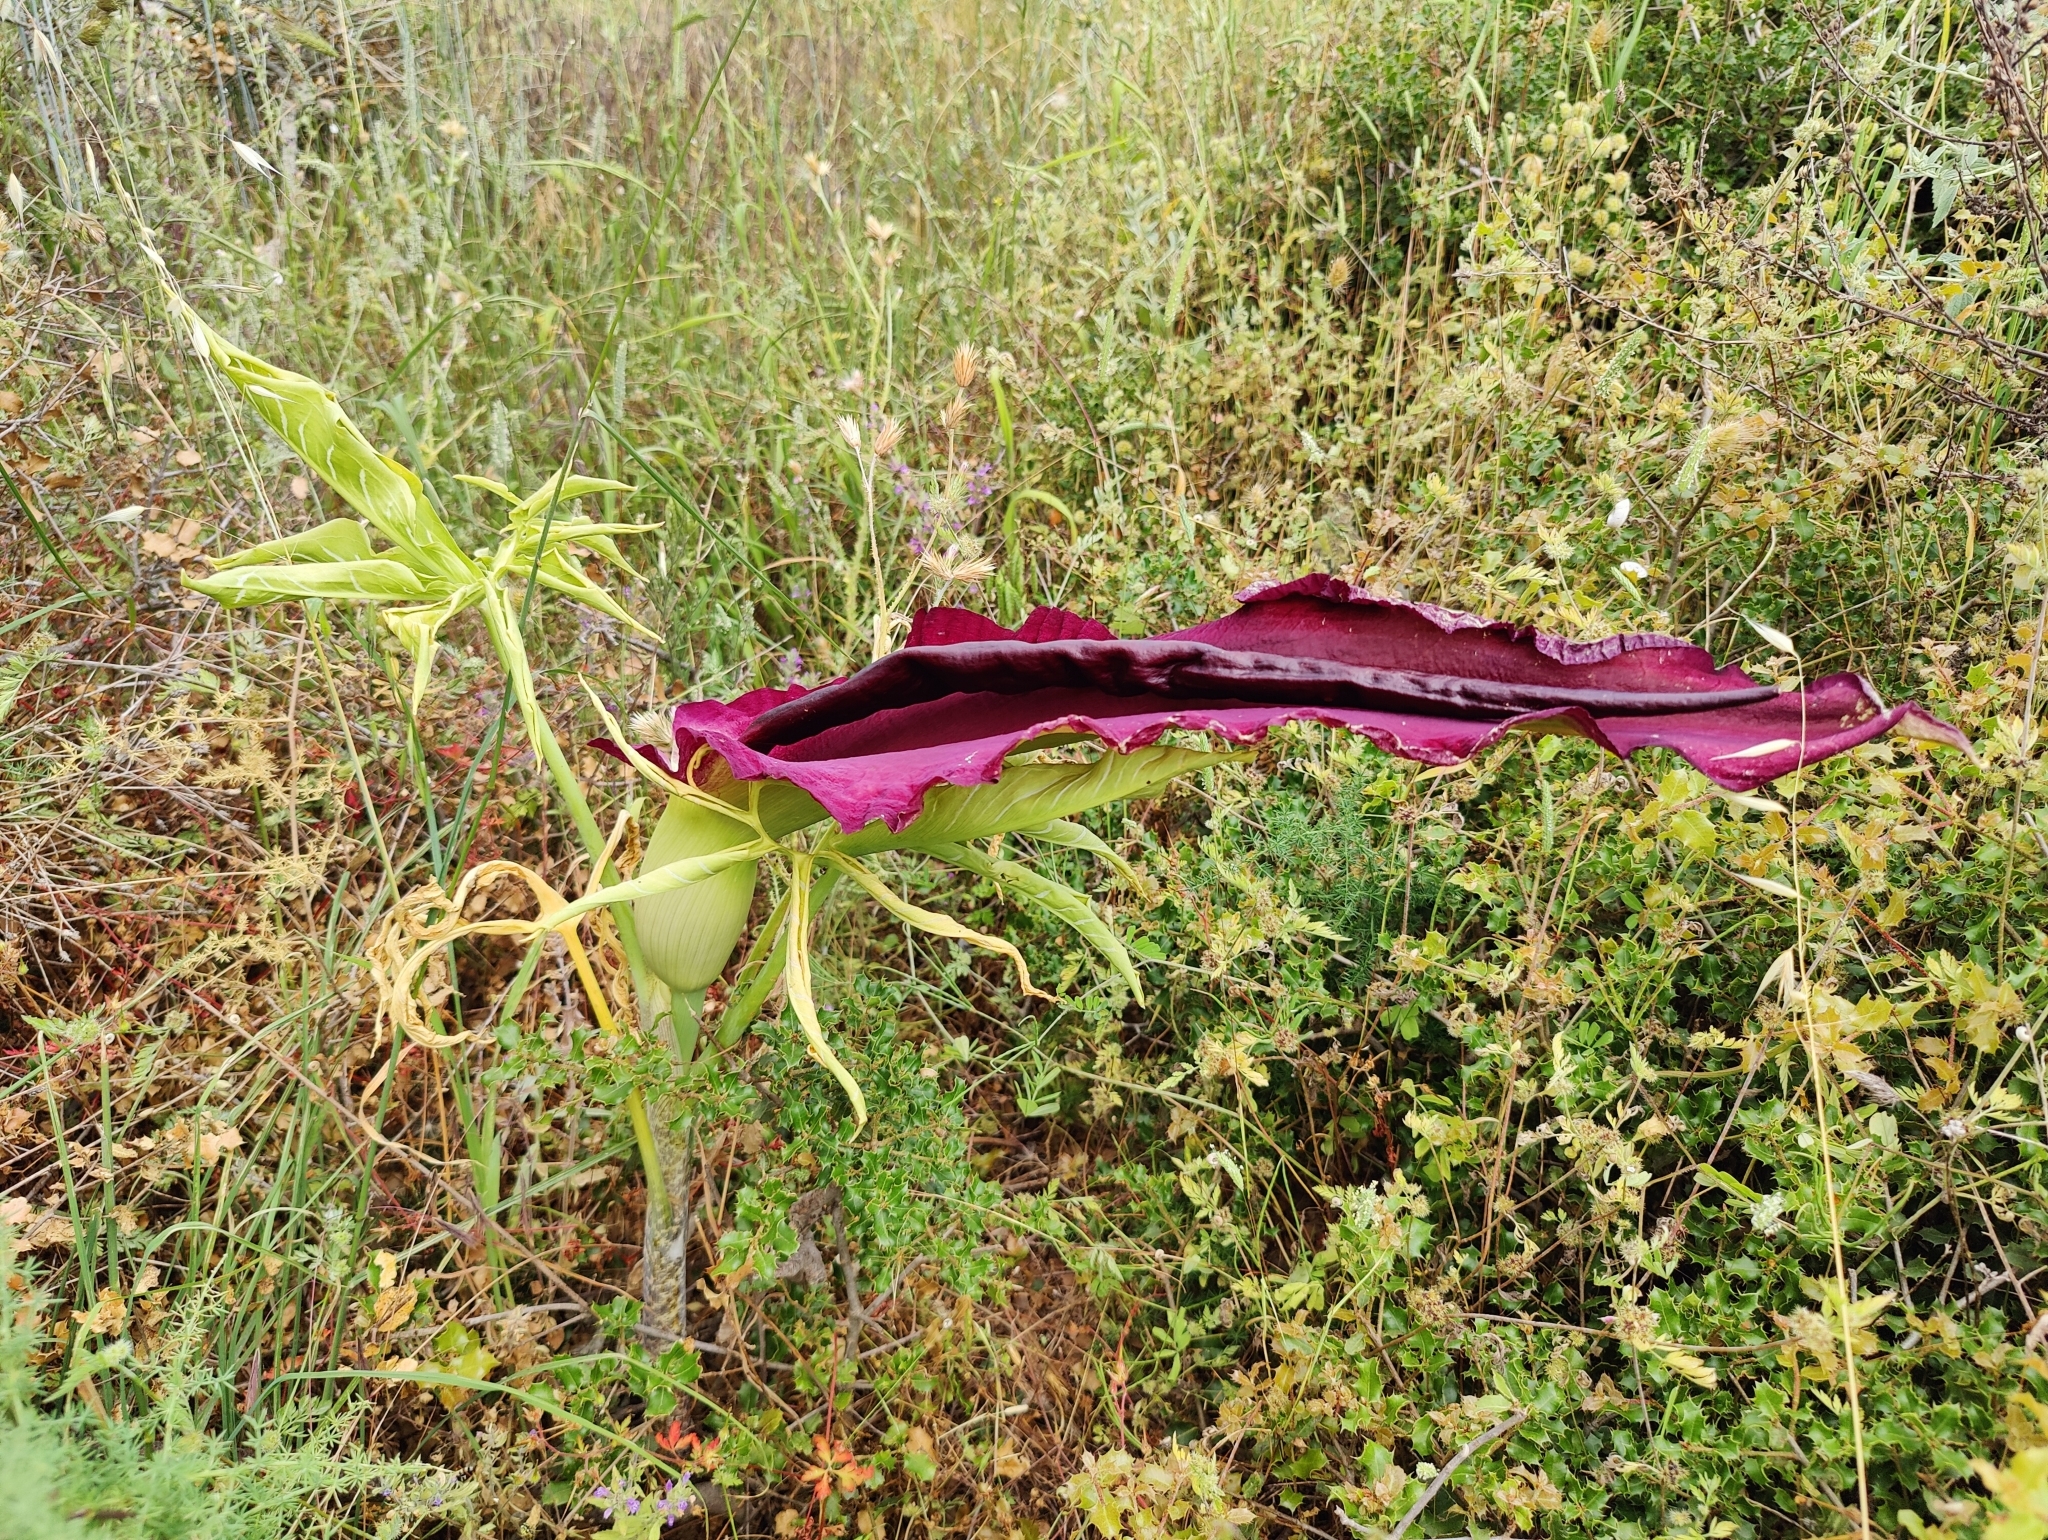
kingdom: Plantae
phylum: Tracheophyta
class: Liliopsida
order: Alismatales
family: Araceae
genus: Dracunculus
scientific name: Dracunculus vulgaris
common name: Dragon arum
